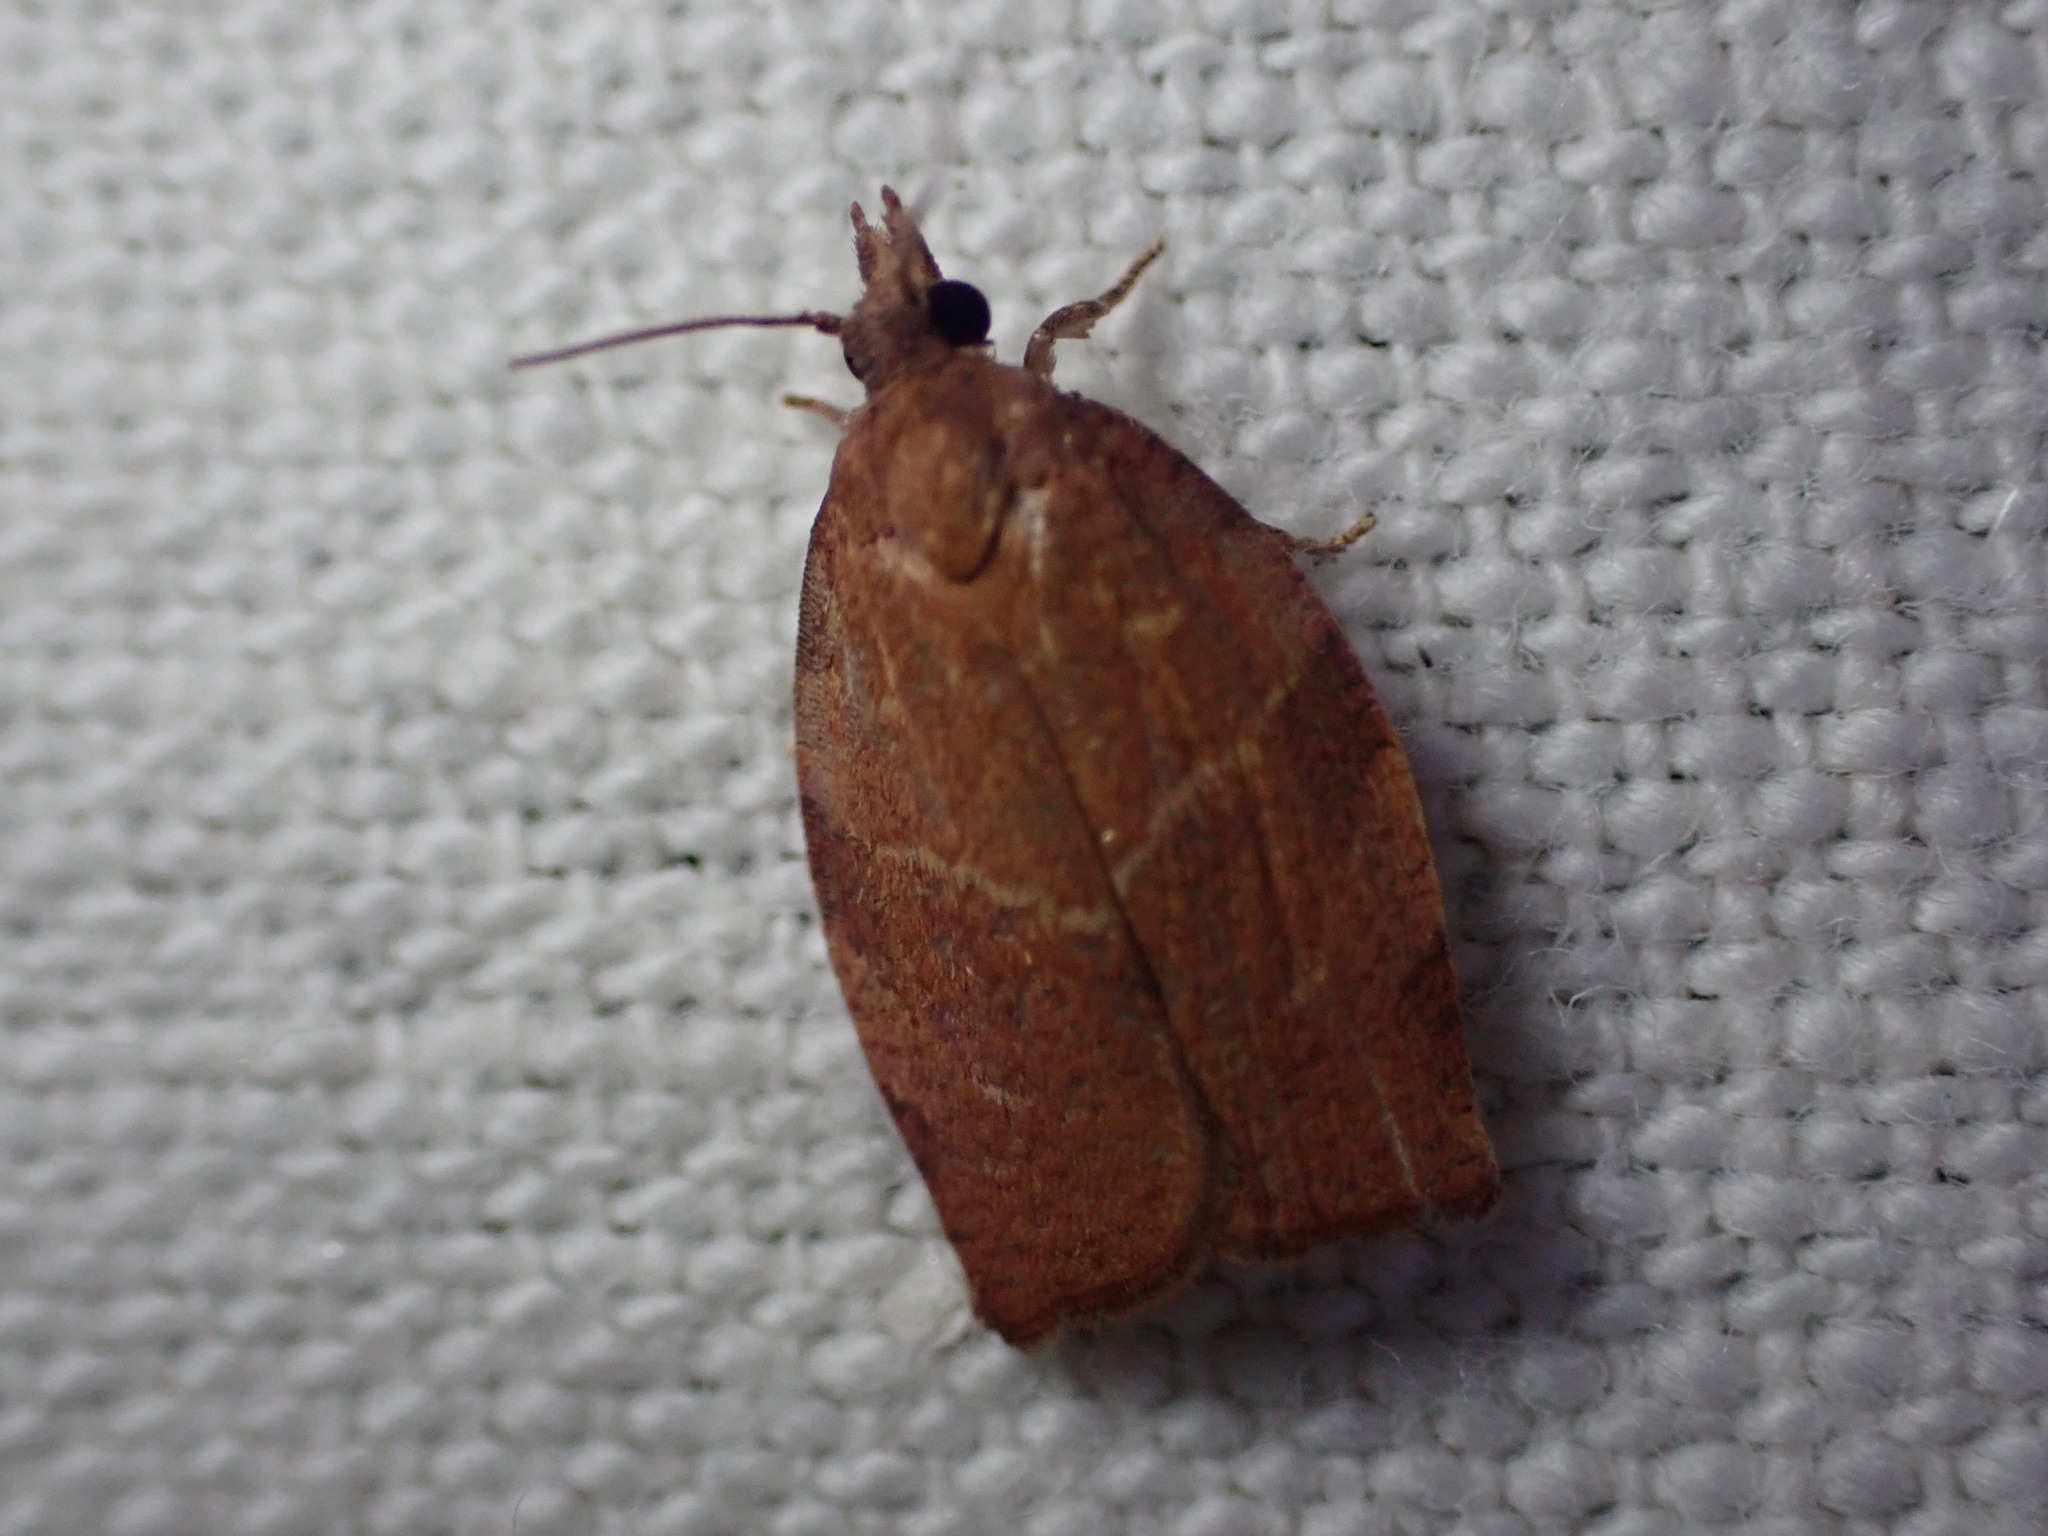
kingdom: Animalia
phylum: Arthropoda
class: Insecta
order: Lepidoptera
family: Tortricidae
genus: Pandemis
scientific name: Pandemis heparana
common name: Dark fruit-tree tortrix
